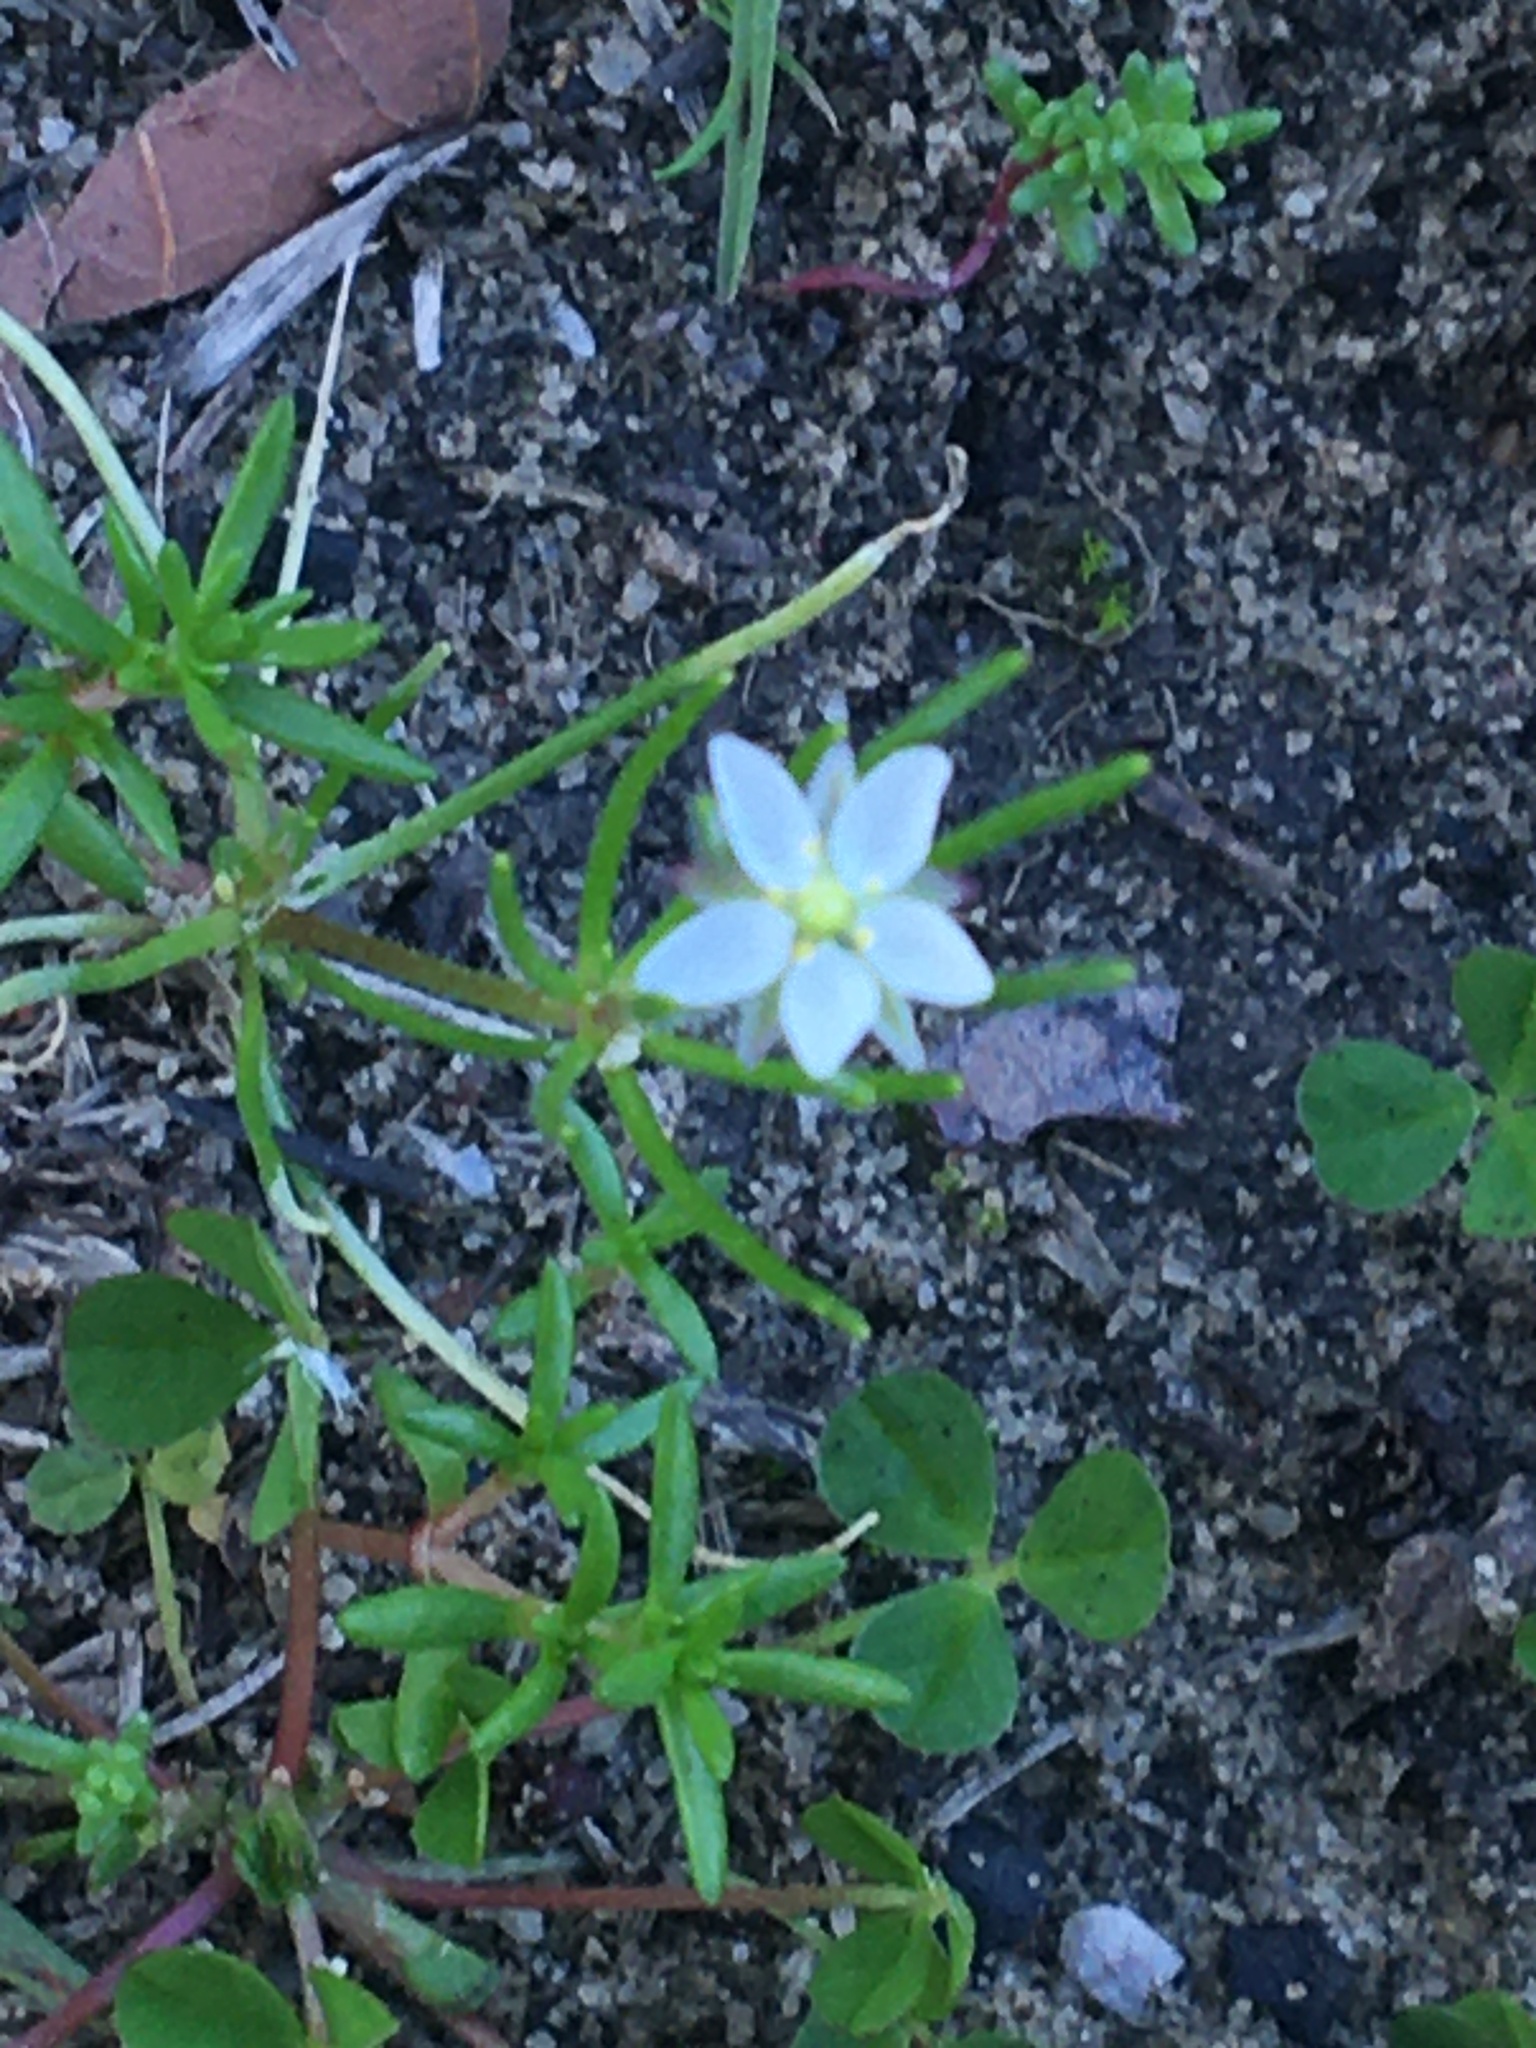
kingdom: Plantae
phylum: Tracheophyta
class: Magnoliopsida
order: Caryophyllales
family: Caryophyllaceae
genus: Spergula
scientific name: Spergula arvensis
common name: Corn spurrey
